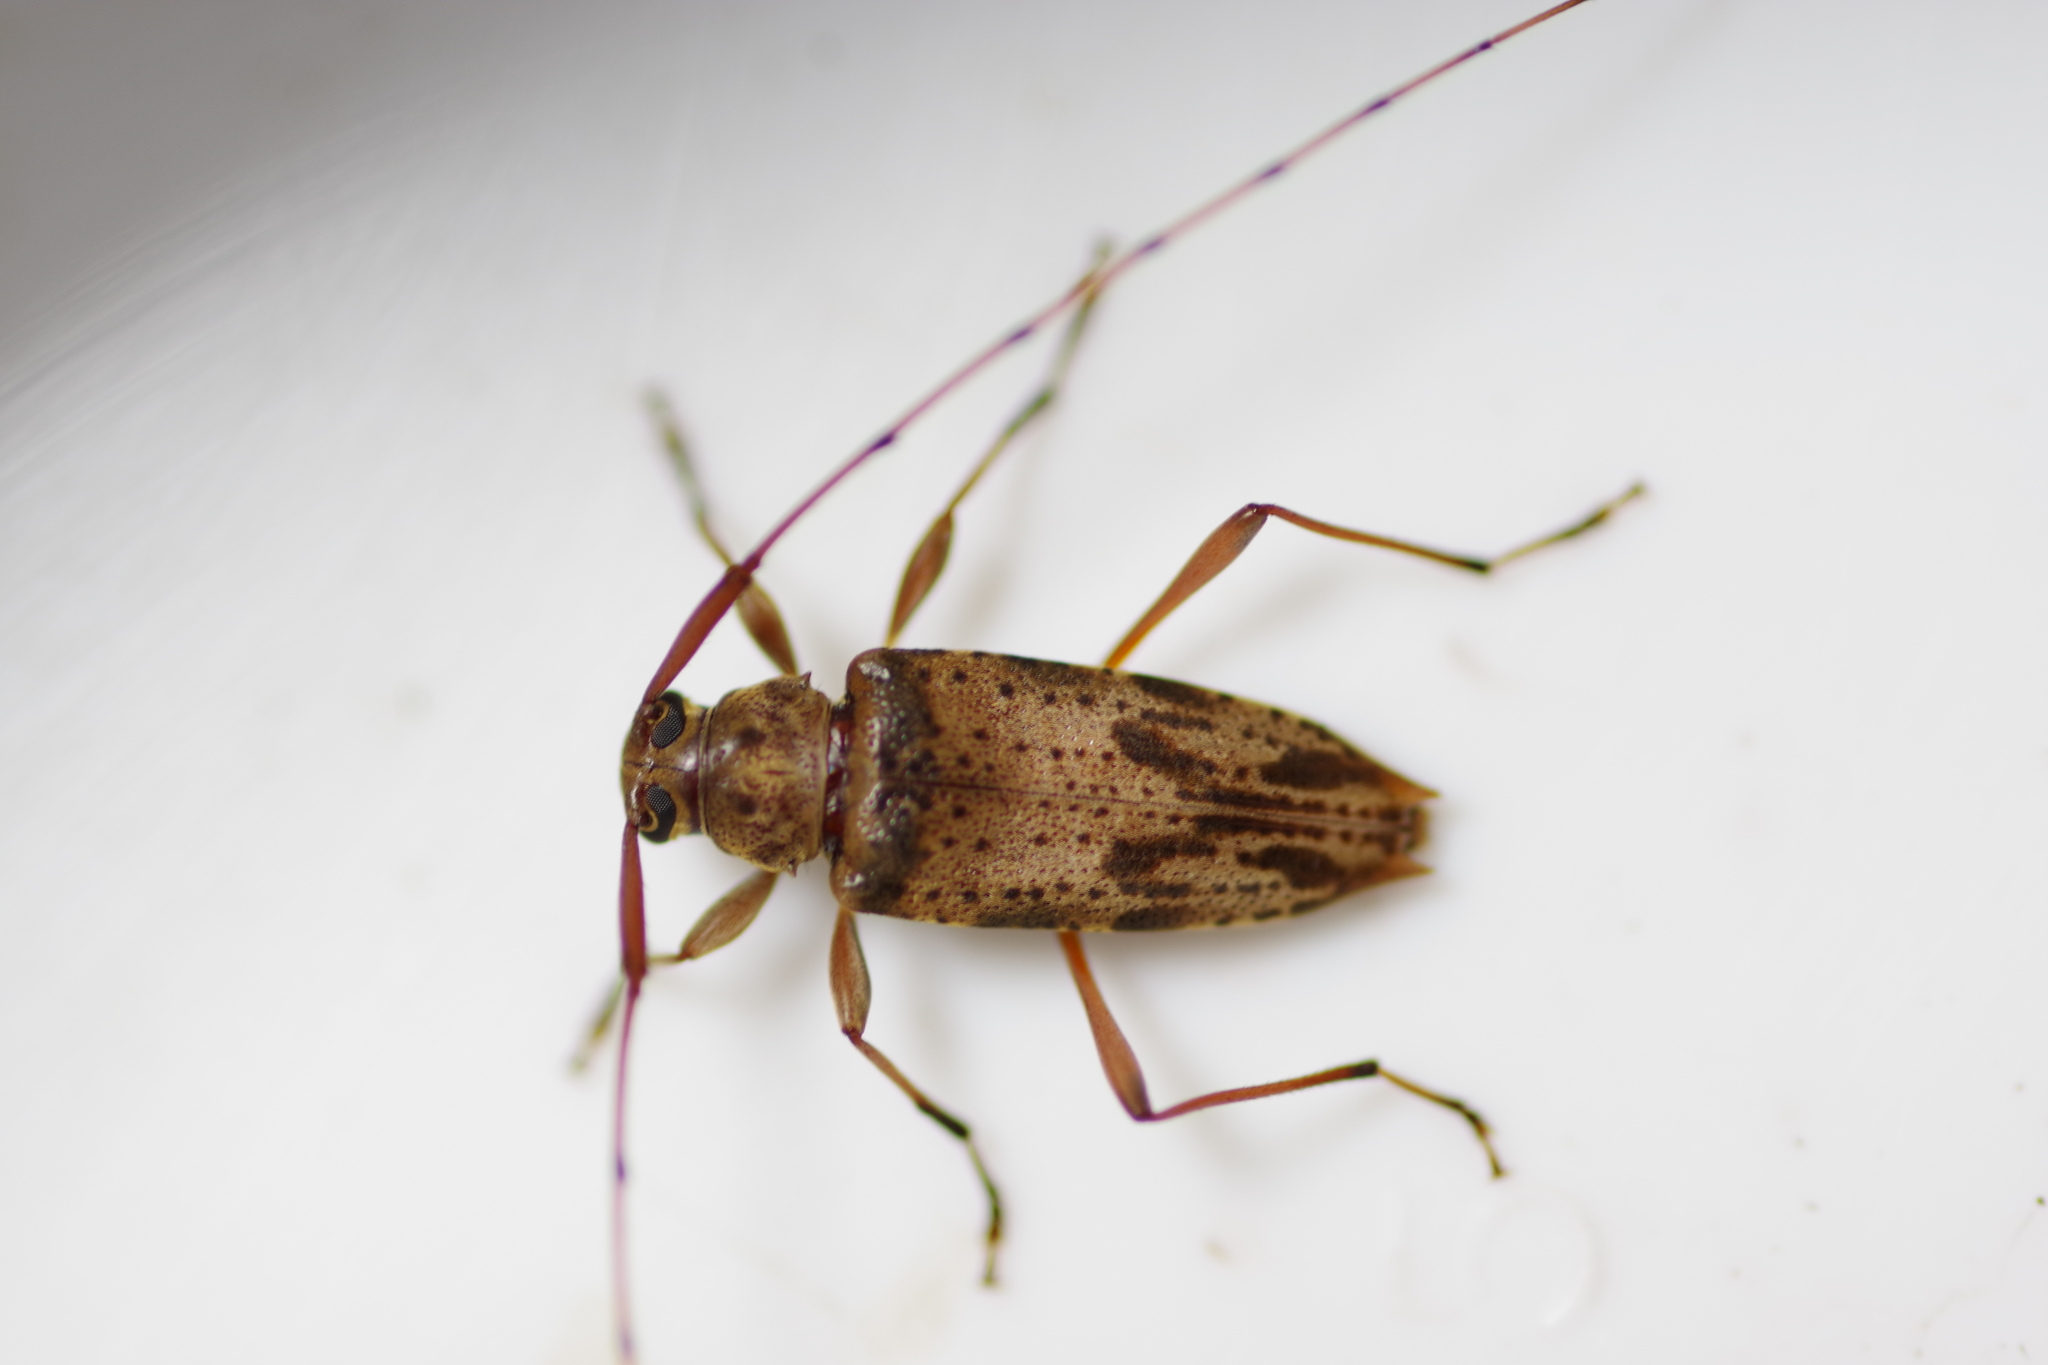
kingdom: Animalia
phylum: Arthropoda
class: Insecta
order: Coleoptera
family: Cerambycidae
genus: Anisopodus
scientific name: Anisopodus scriptipennis
